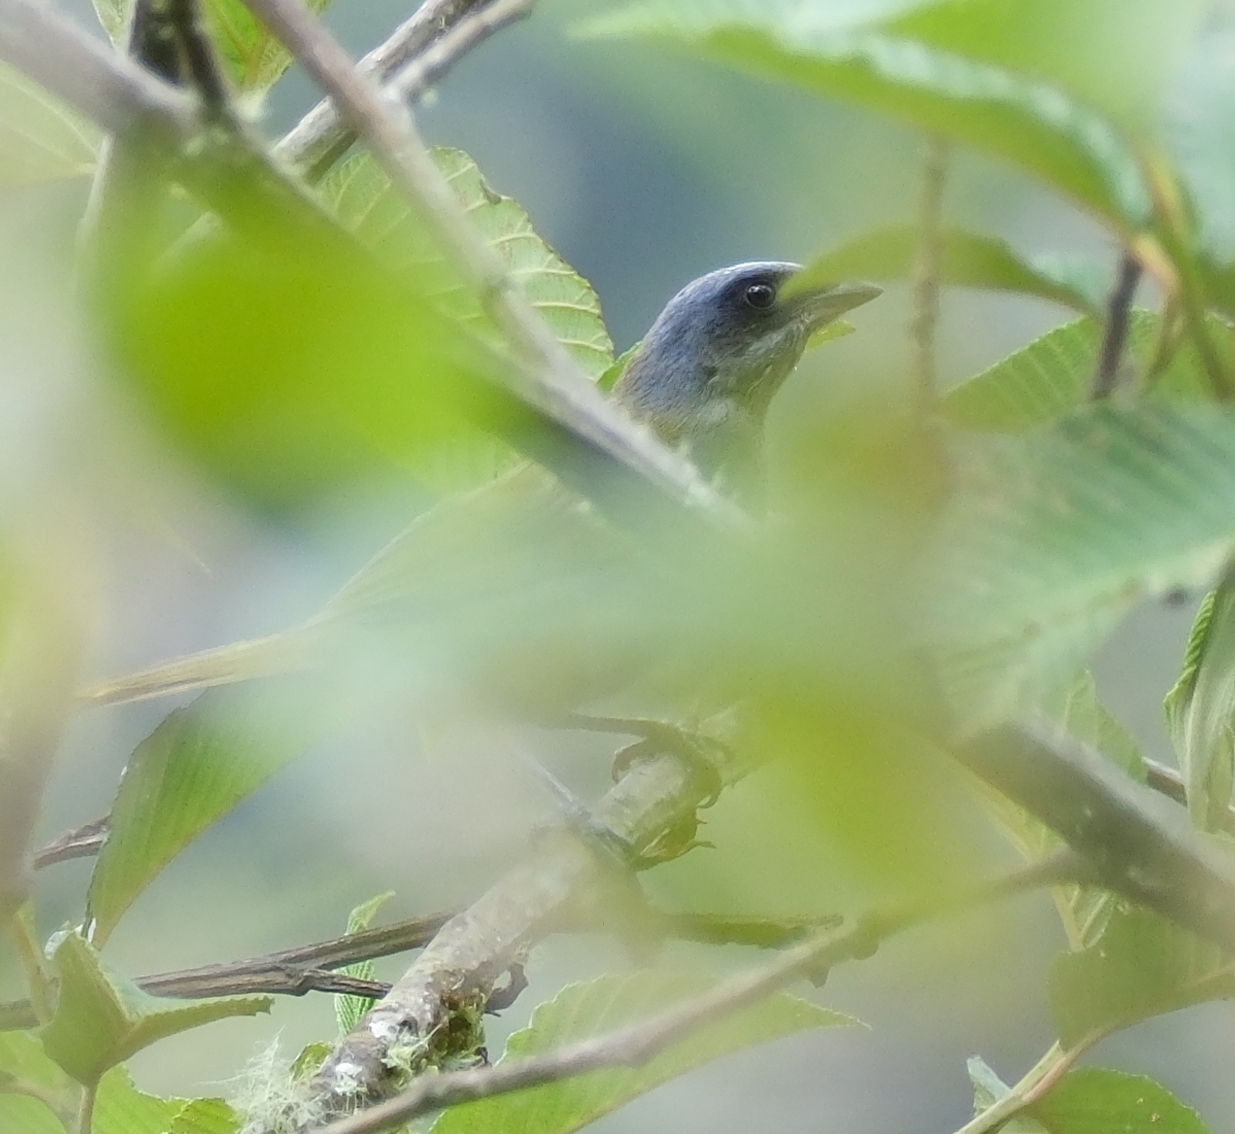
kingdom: Animalia
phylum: Chordata
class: Aves
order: Passeriformes
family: Thraupidae
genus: Sporathraupis
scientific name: Sporathraupis cyanocephala
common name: Blue-capped tanager
